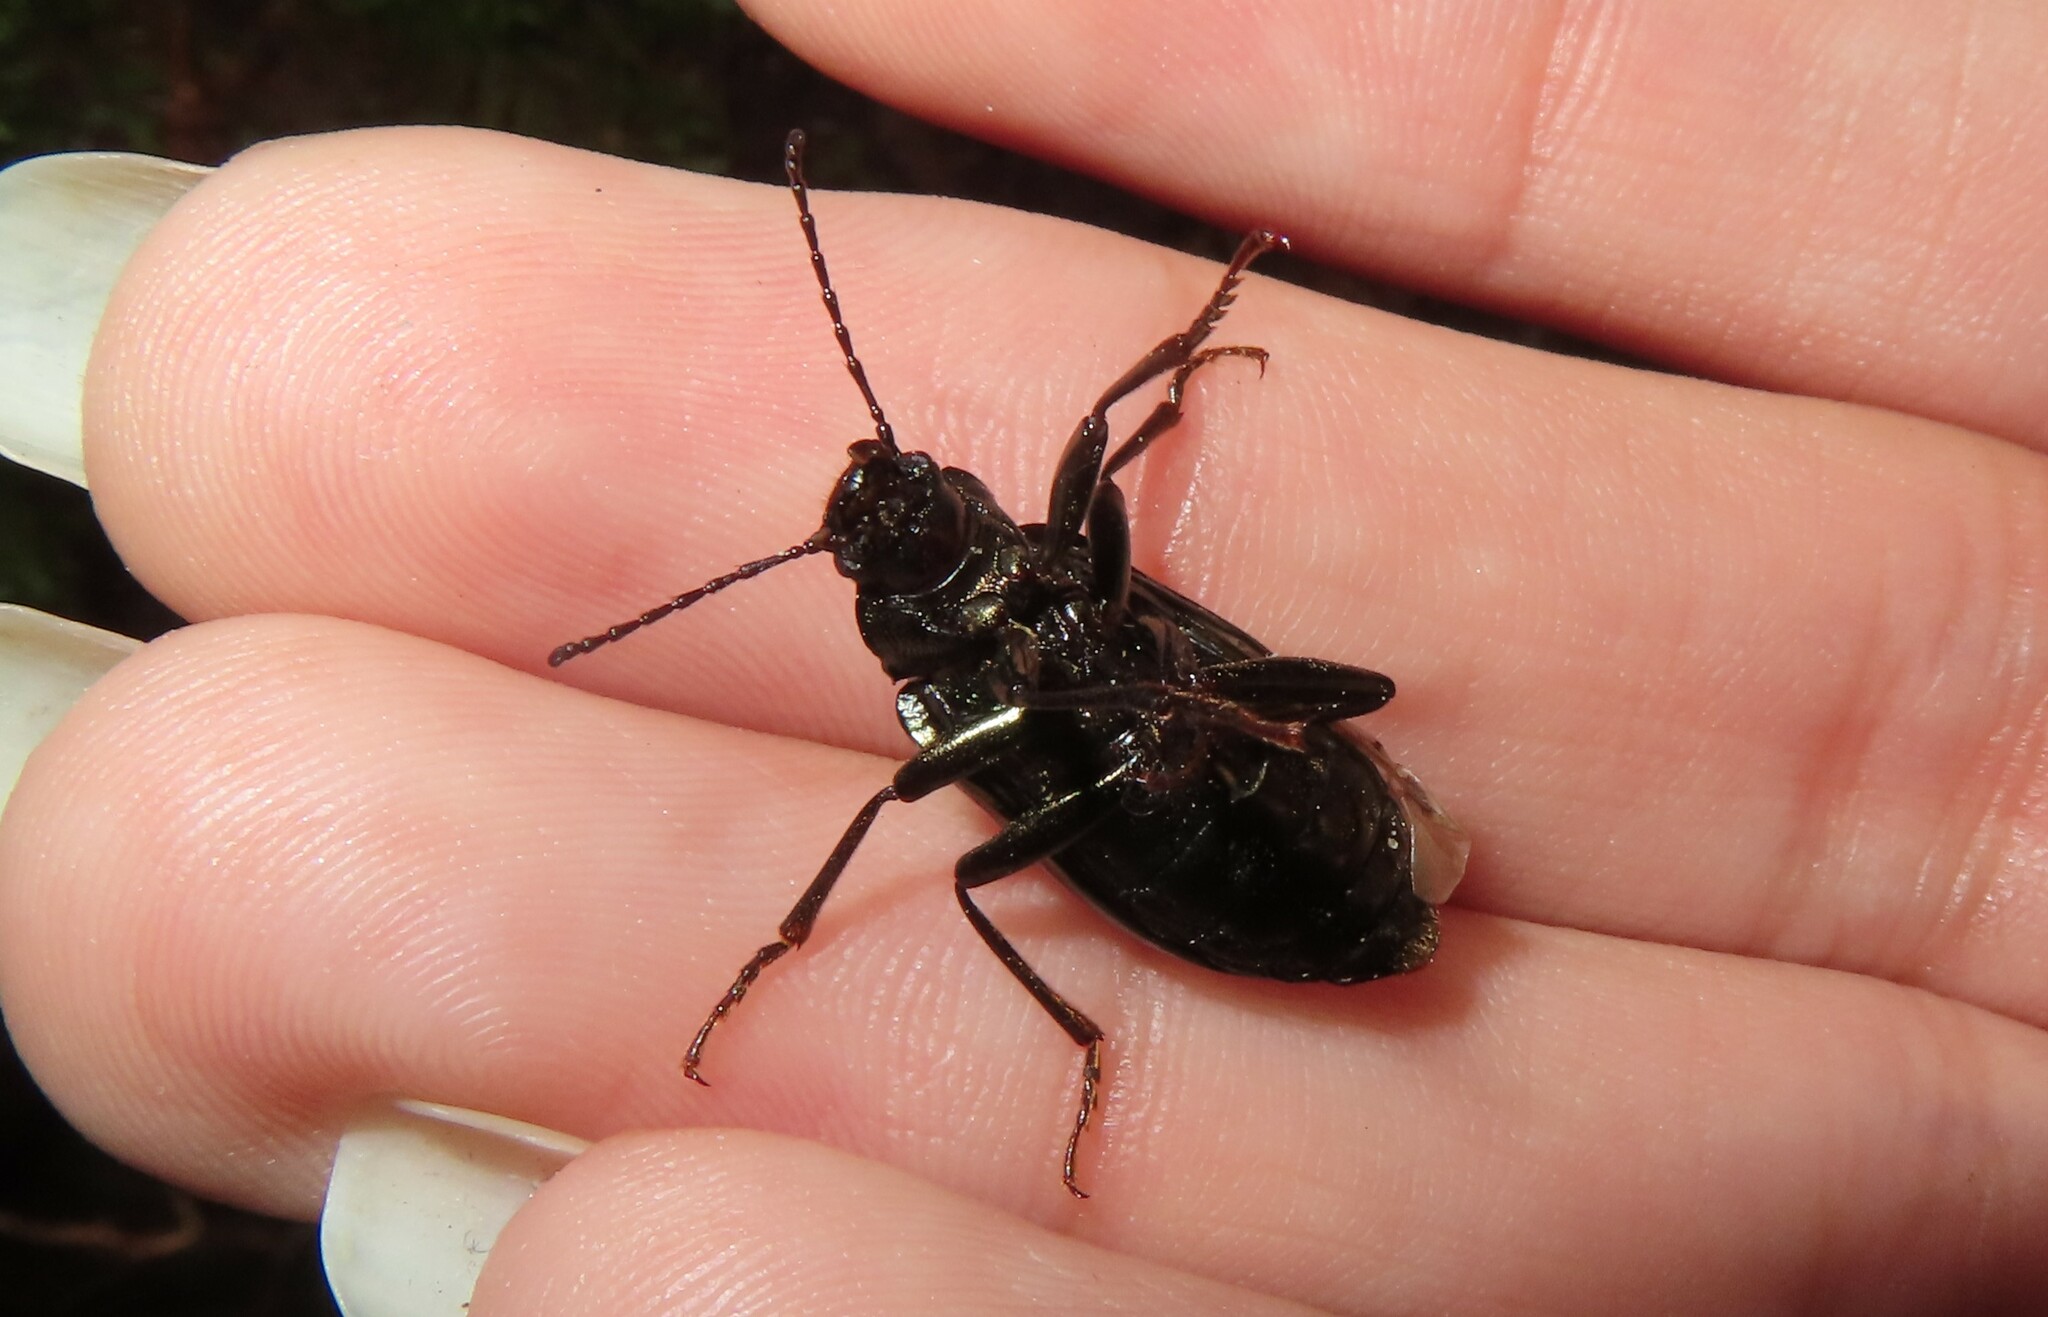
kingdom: Animalia
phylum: Arthropoda
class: Insecta
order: Coleoptera
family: Tenebrionidae
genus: Tarpela
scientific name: Tarpela micans
